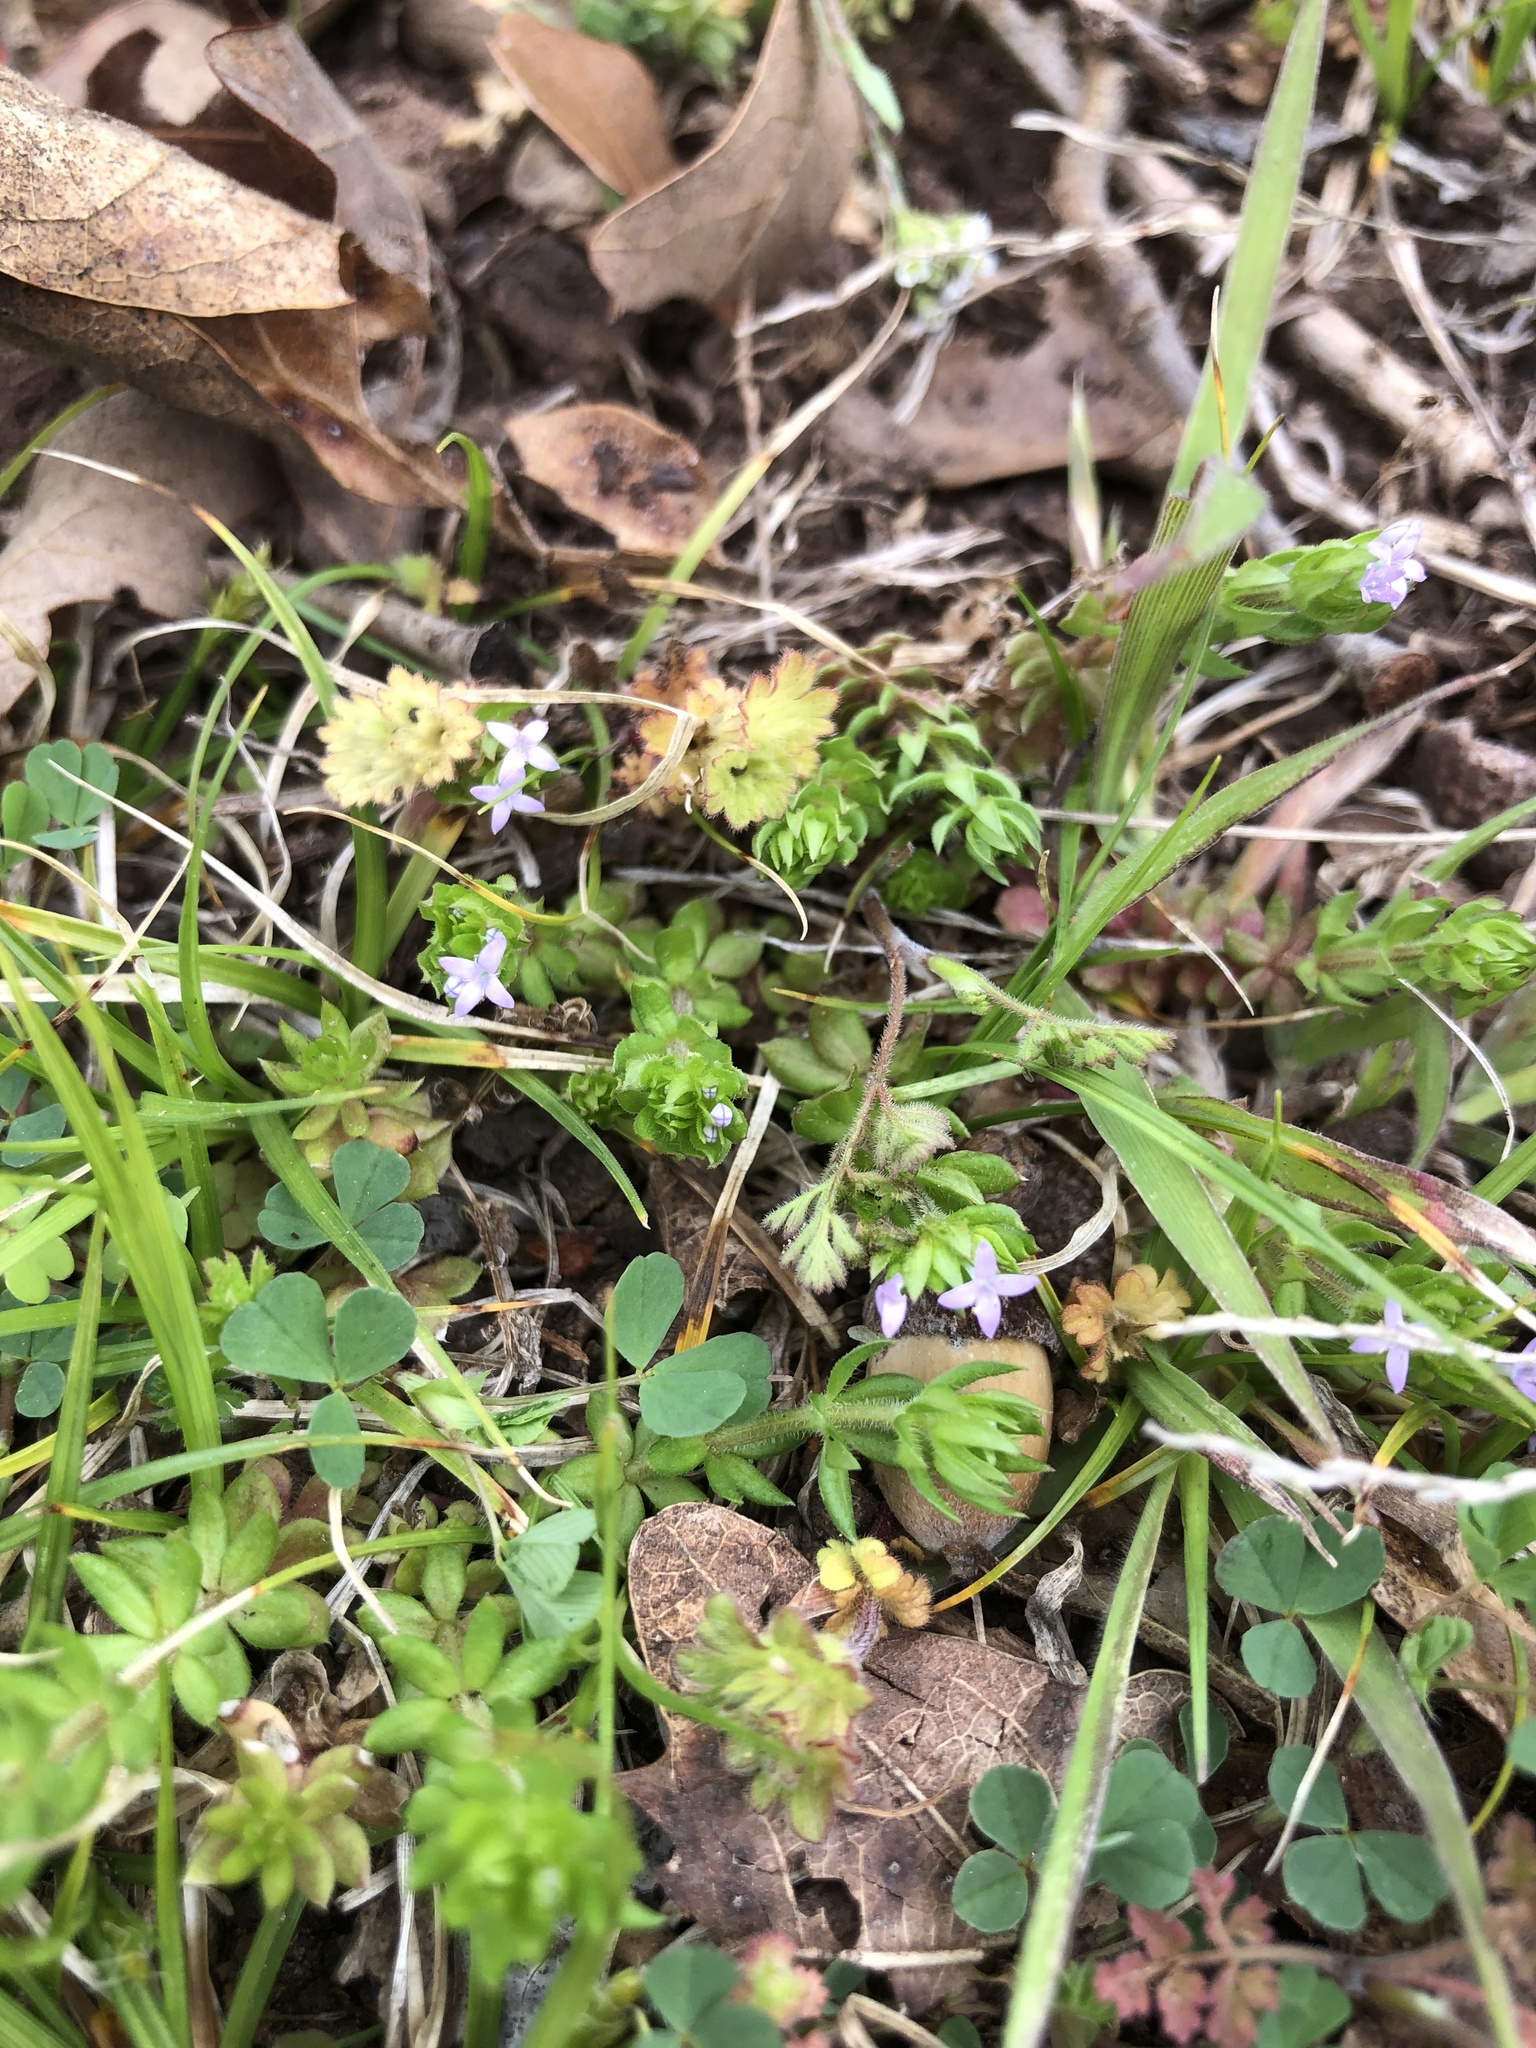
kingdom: Plantae
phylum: Tracheophyta
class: Magnoliopsida
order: Gentianales
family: Rubiaceae
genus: Sherardia
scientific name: Sherardia arvensis
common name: Field madder
